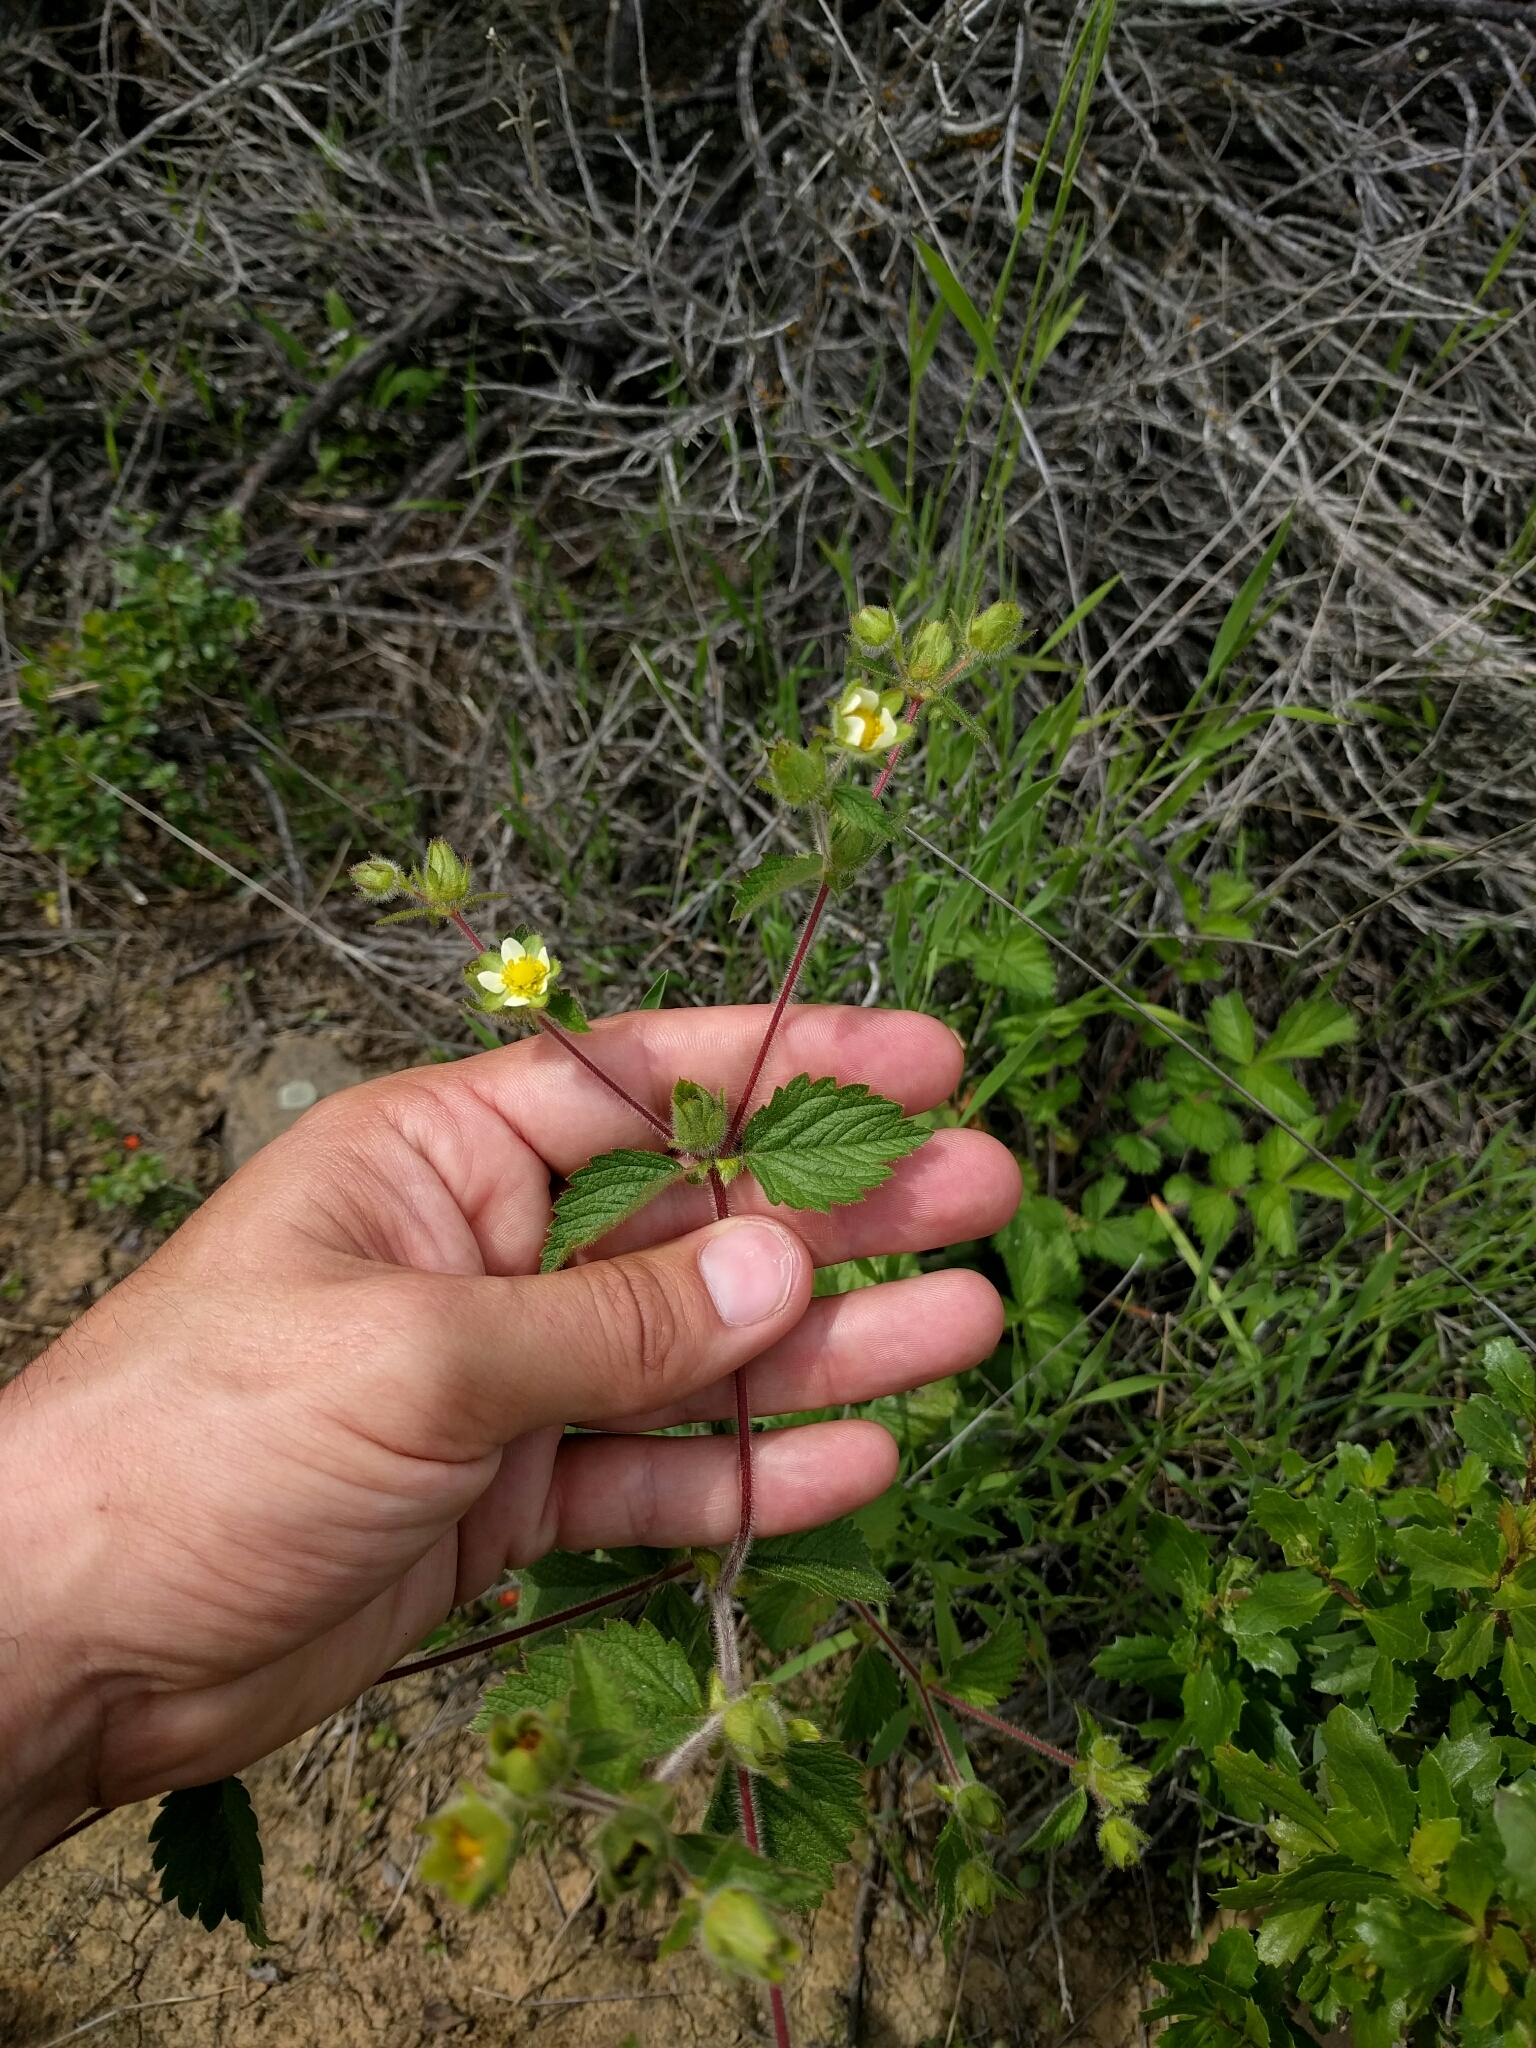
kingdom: Plantae
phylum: Tracheophyta
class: Magnoliopsida
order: Rosales
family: Rosaceae
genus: Drymocallis
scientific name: Drymocallis glandulosa
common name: Sticky cinquefoil
